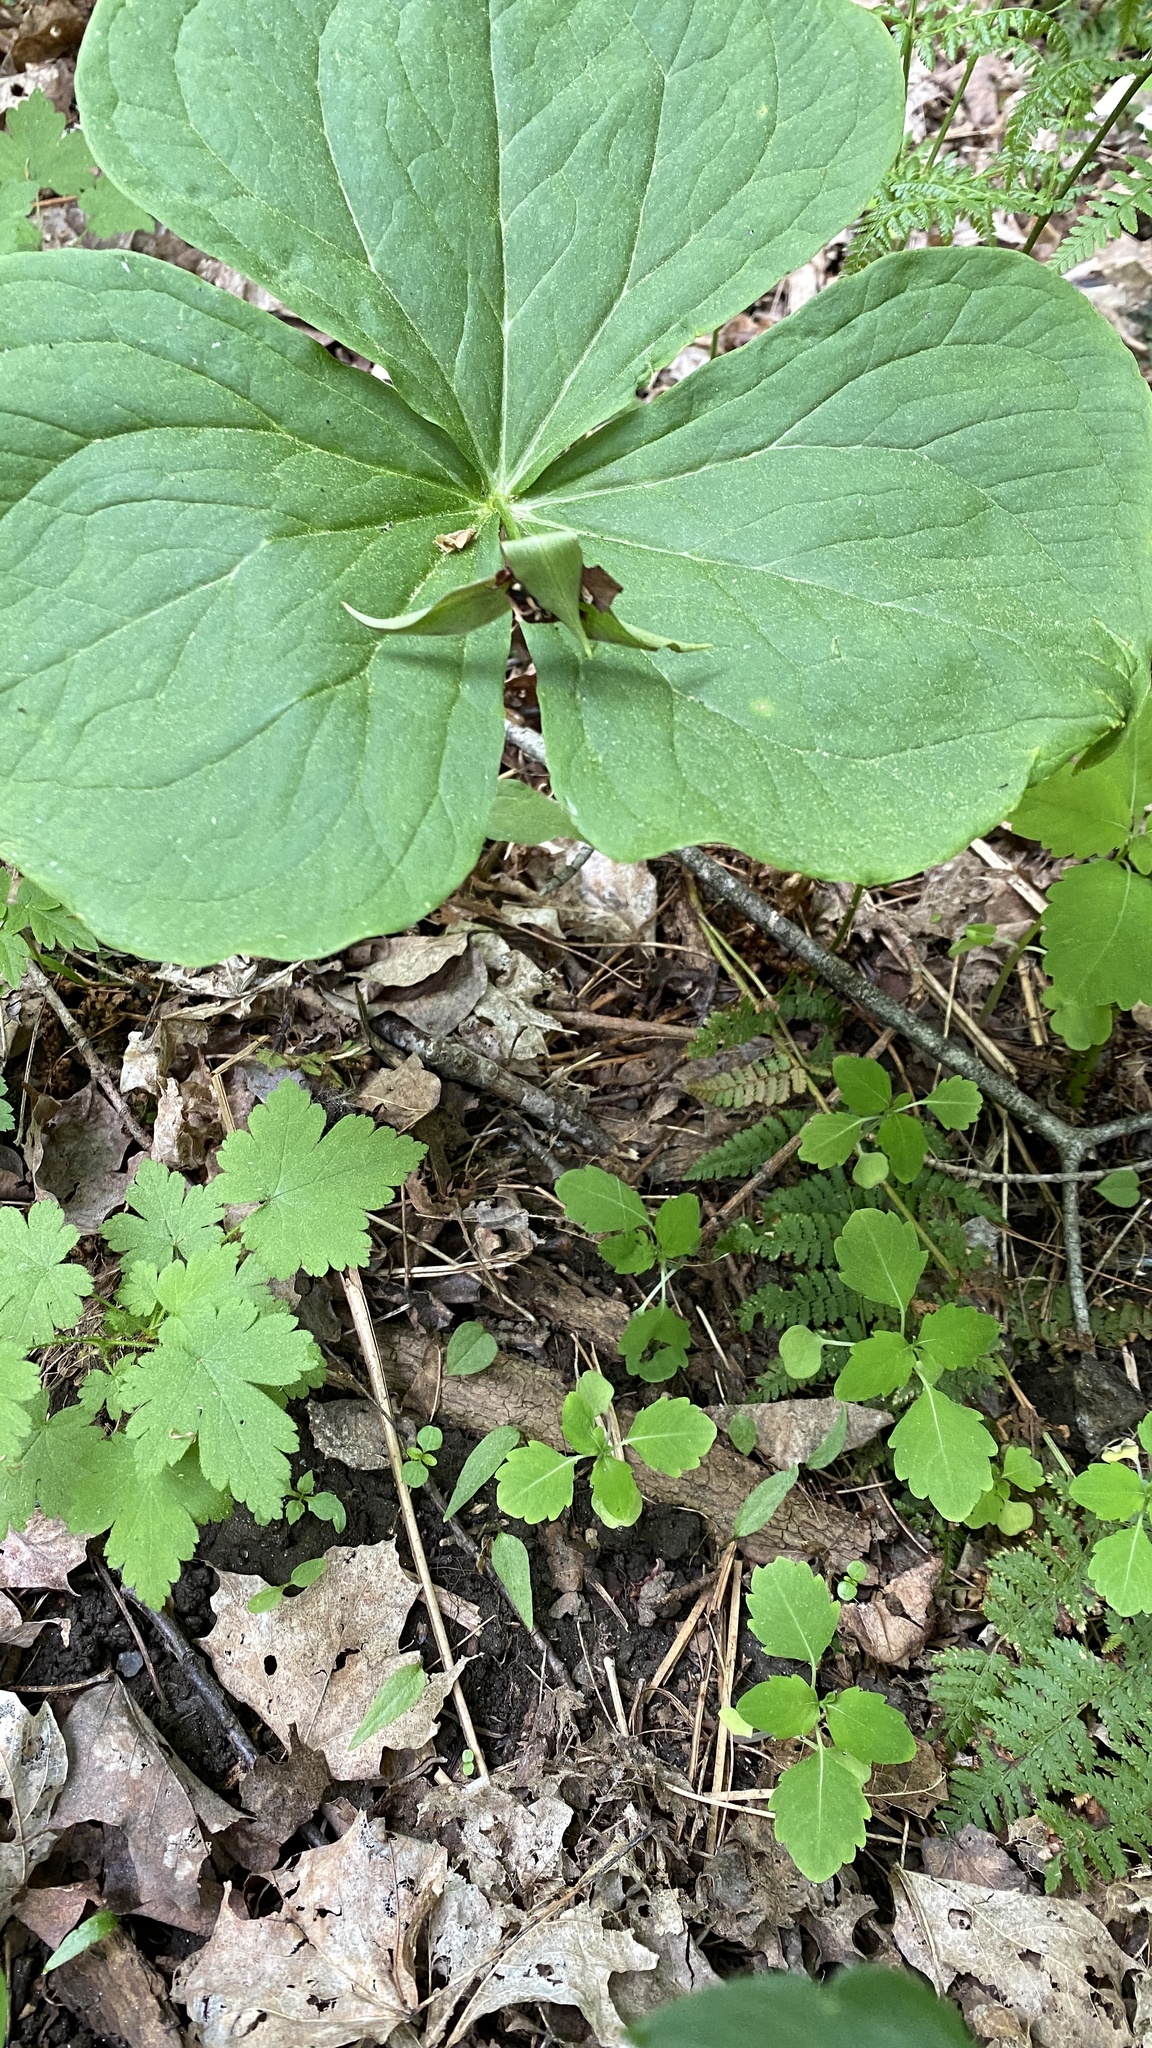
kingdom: Plantae
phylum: Tracheophyta
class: Liliopsida
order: Liliales
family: Melanthiaceae
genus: Trillium
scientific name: Trillium erectum
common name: Purple trillium
